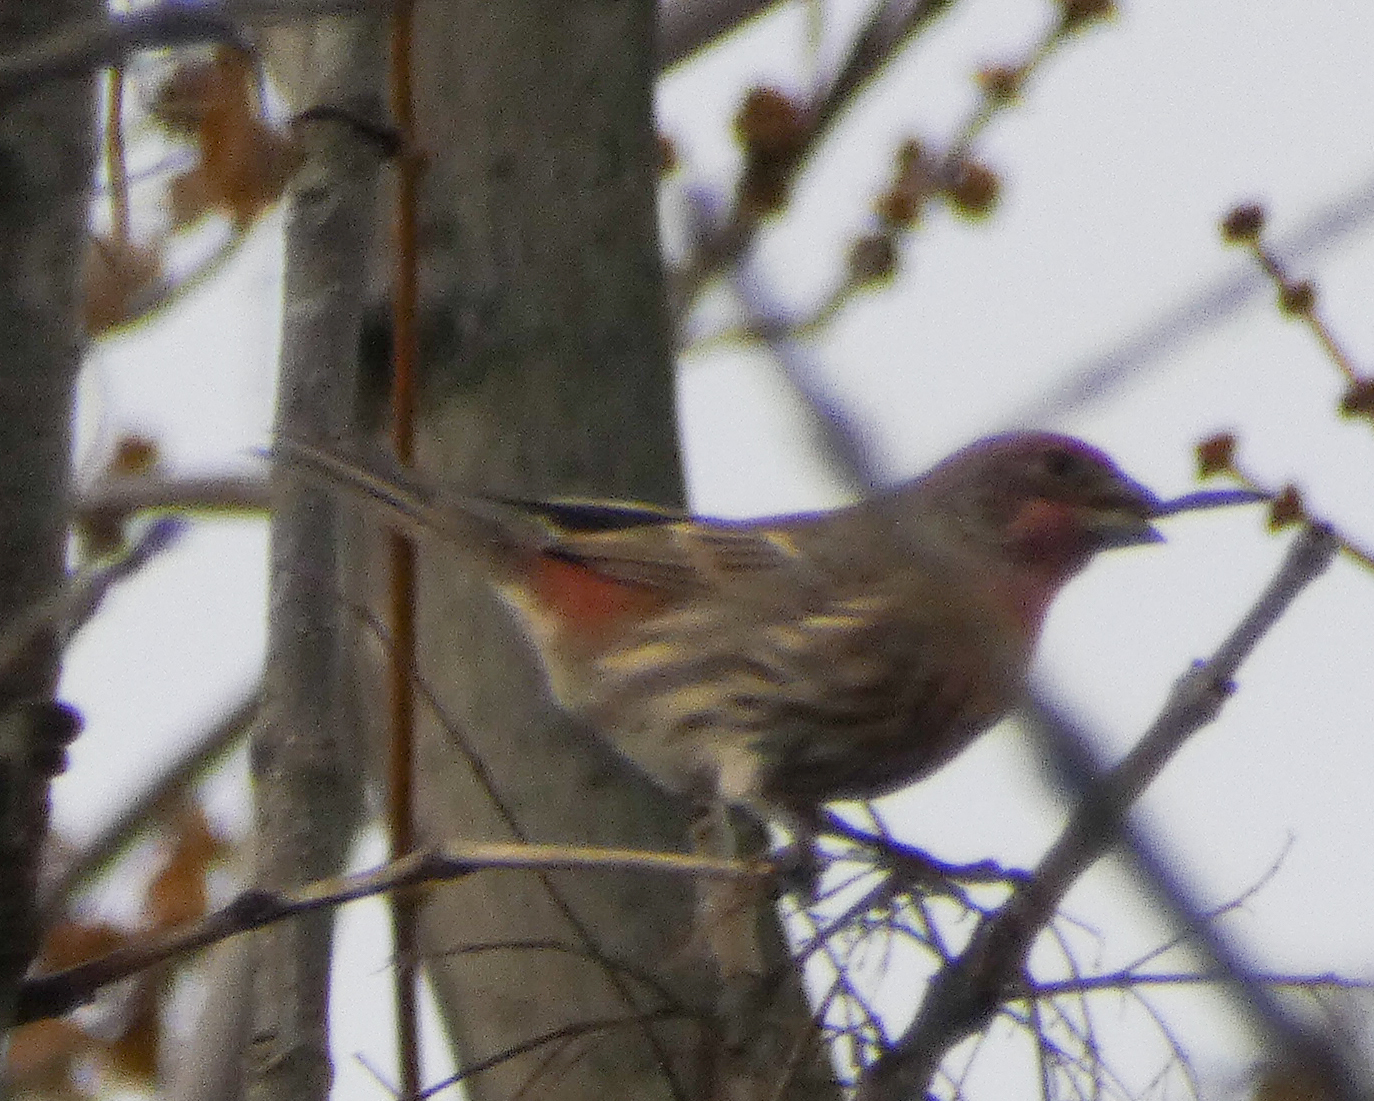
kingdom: Animalia
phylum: Chordata
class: Aves
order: Passeriformes
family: Fringillidae
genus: Haemorhous
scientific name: Haemorhous mexicanus
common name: House finch
